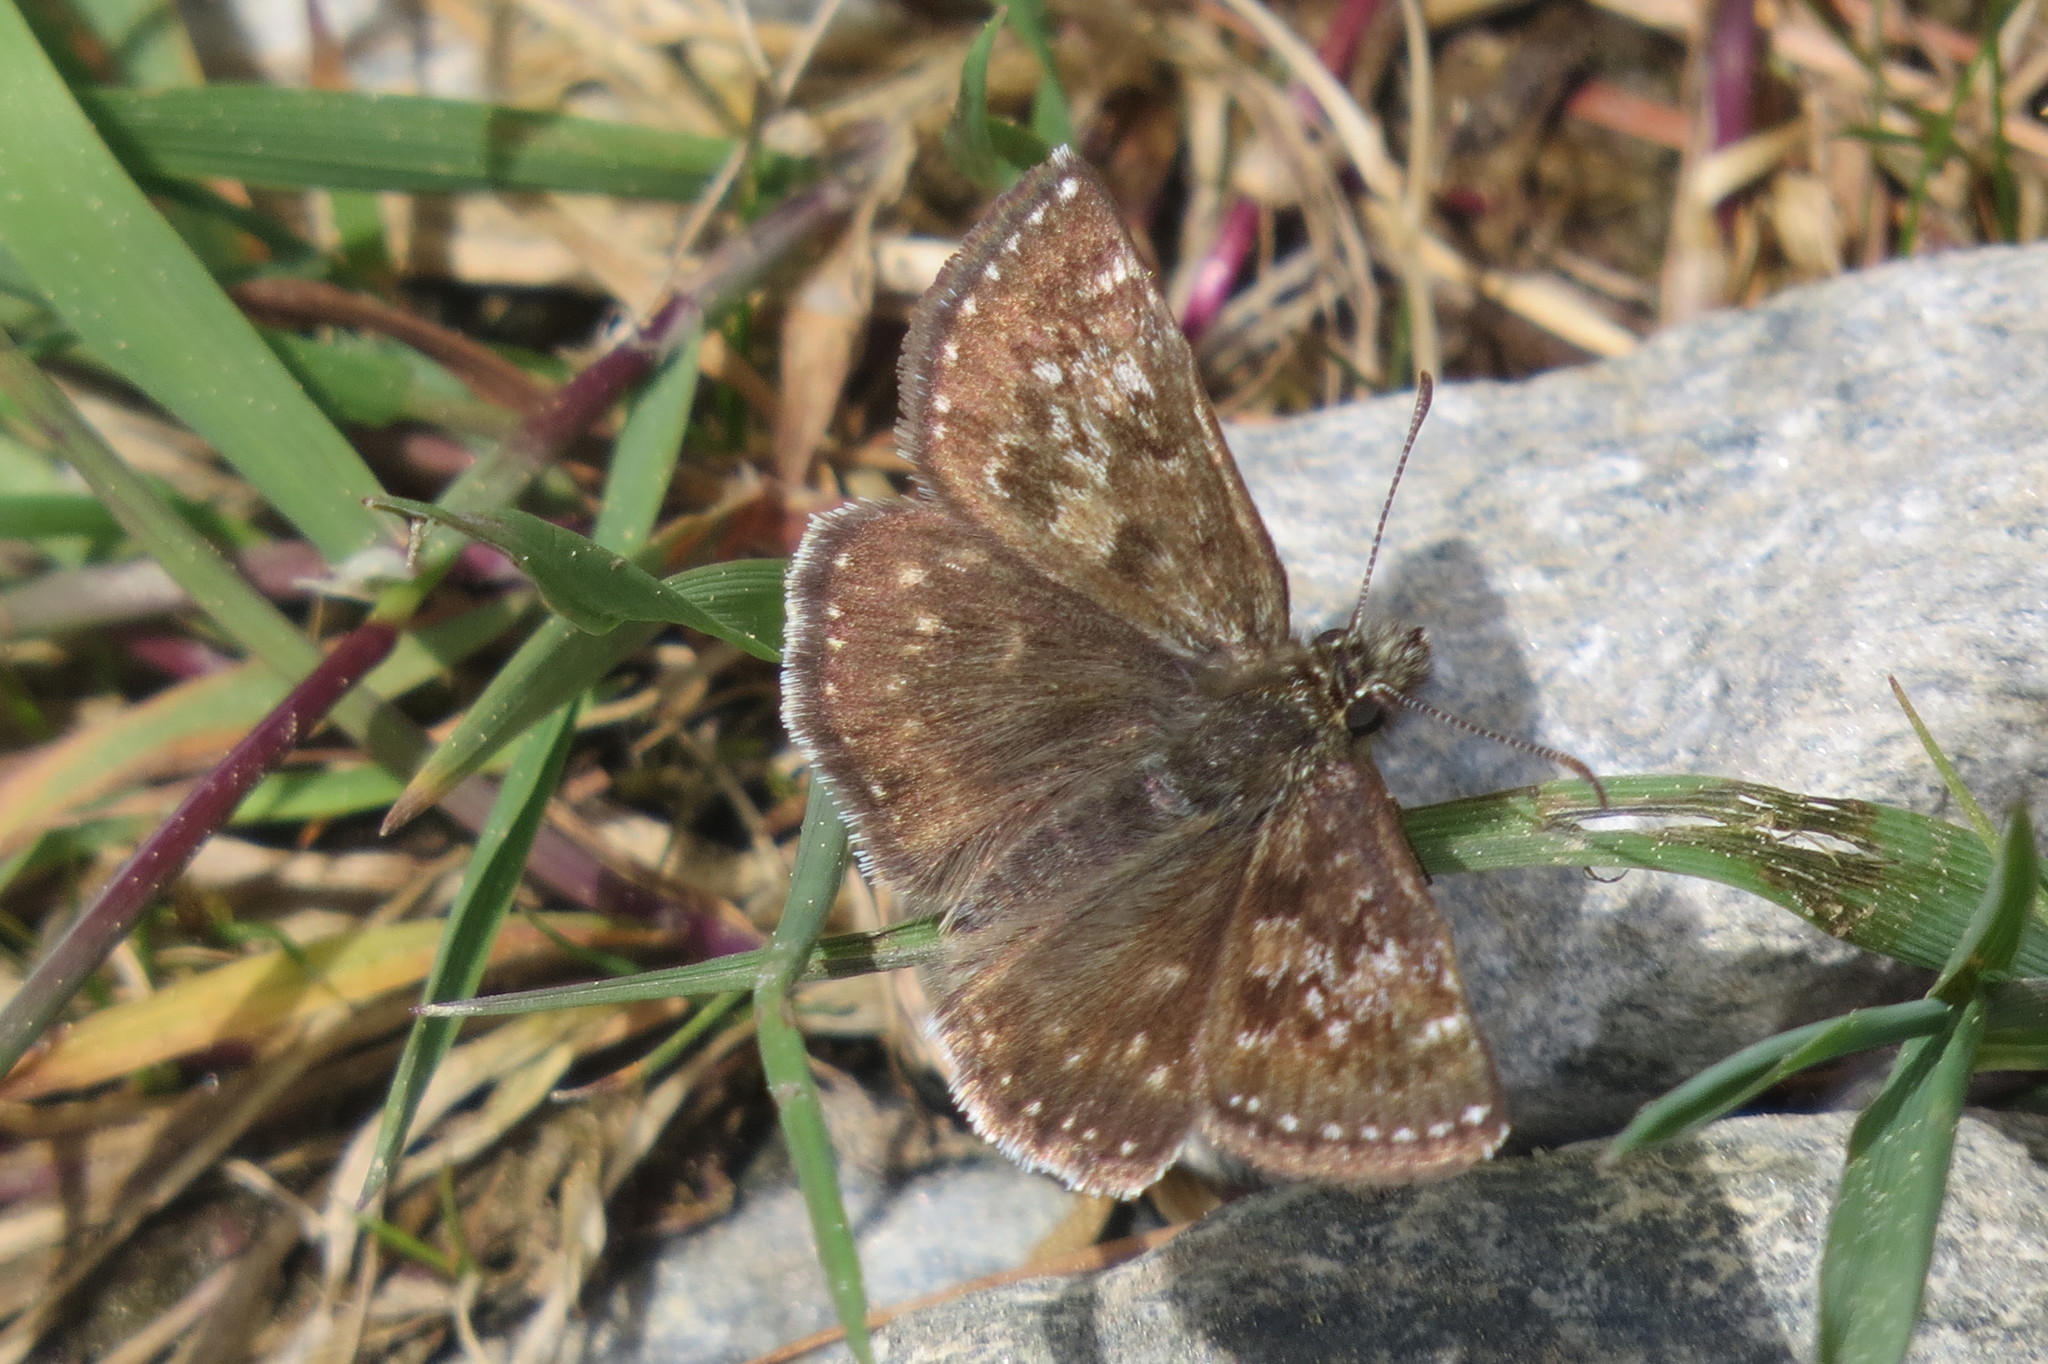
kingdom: Animalia
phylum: Arthropoda
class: Insecta
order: Lepidoptera
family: Hesperiidae
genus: Erynnis
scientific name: Erynnis tages
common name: Dingy skipper
